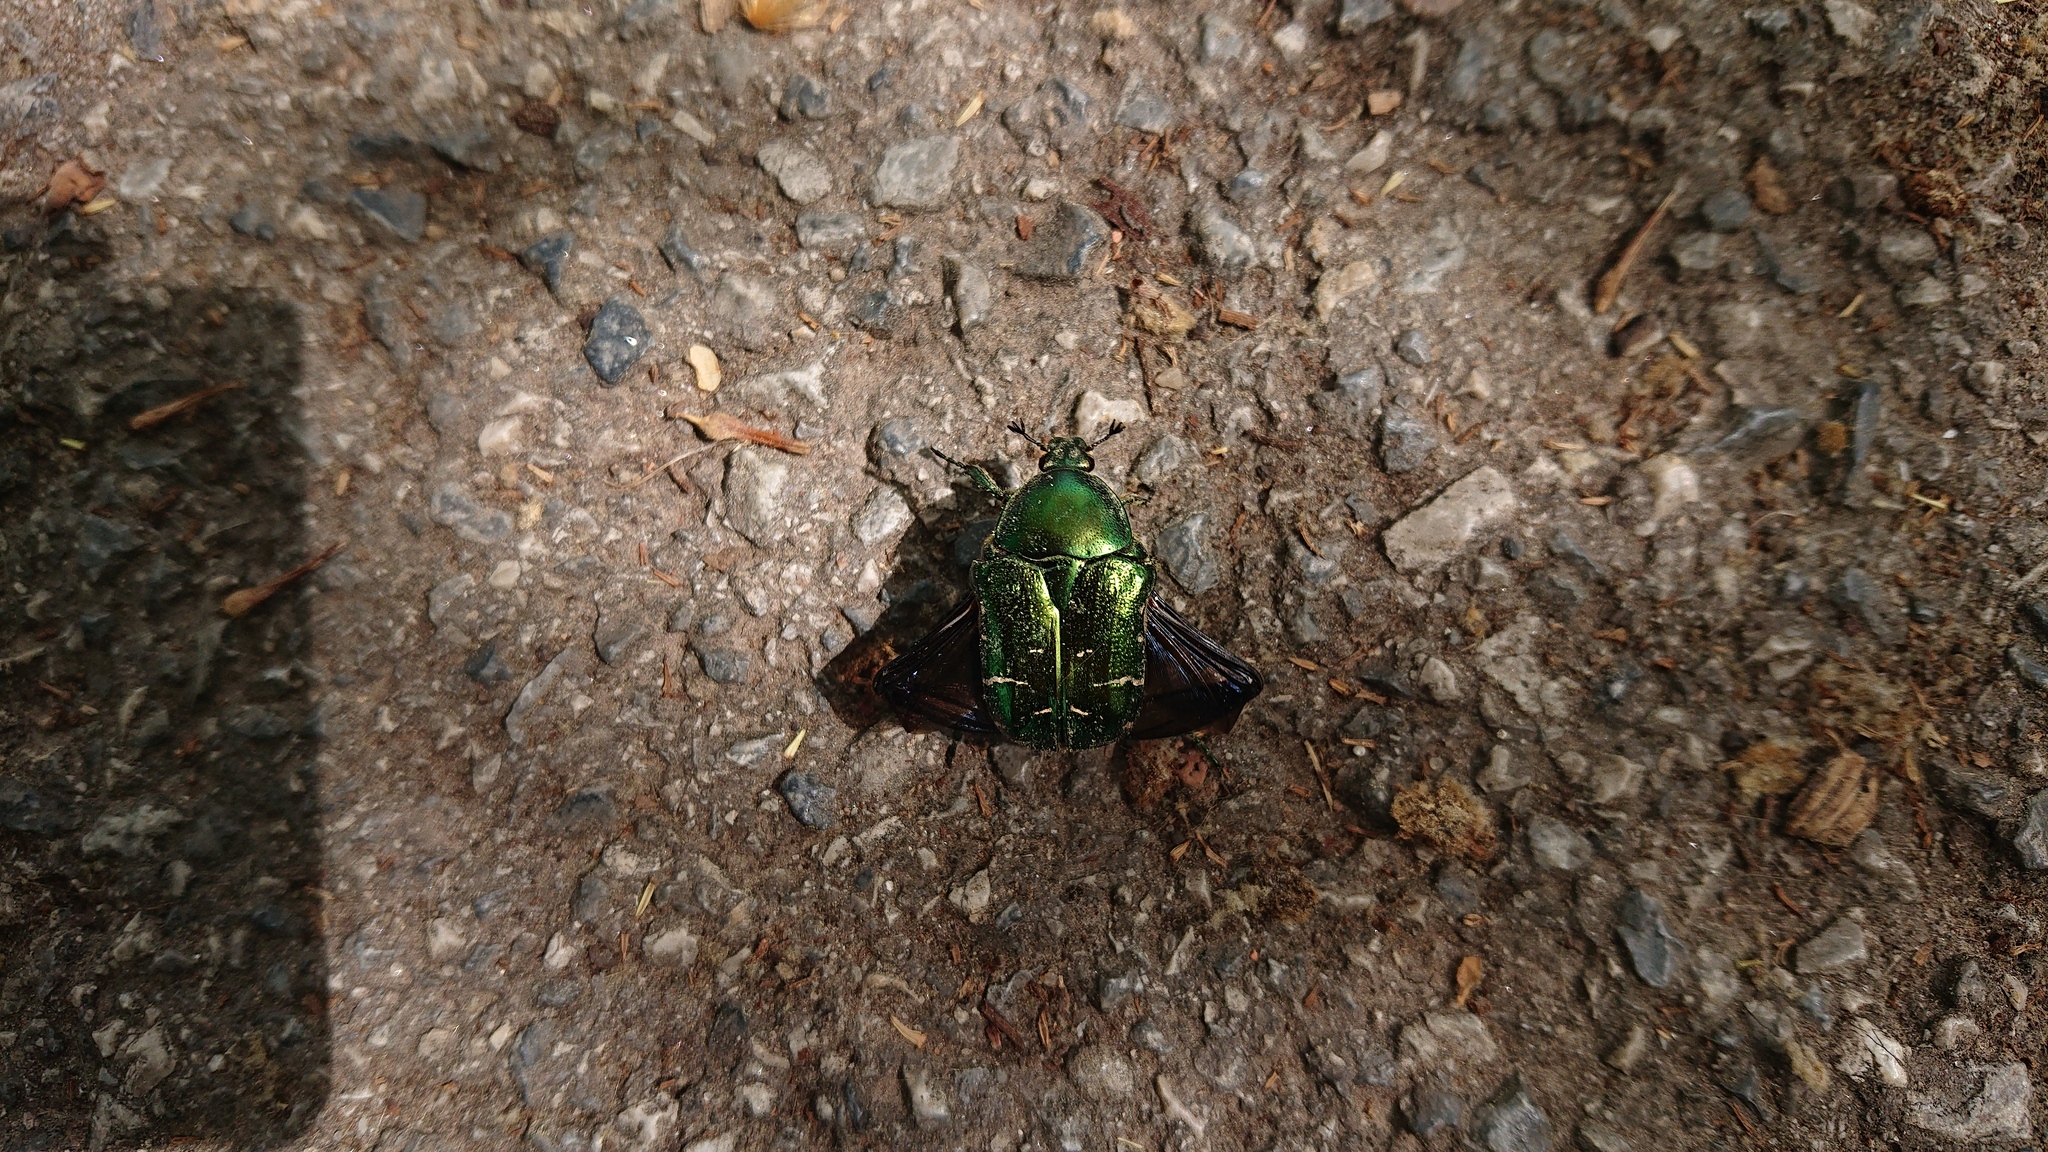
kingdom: Animalia
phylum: Arthropoda
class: Insecta
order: Coleoptera
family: Scarabaeidae
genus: Cetonia
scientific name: Cetonia aurata
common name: Rose chafer
